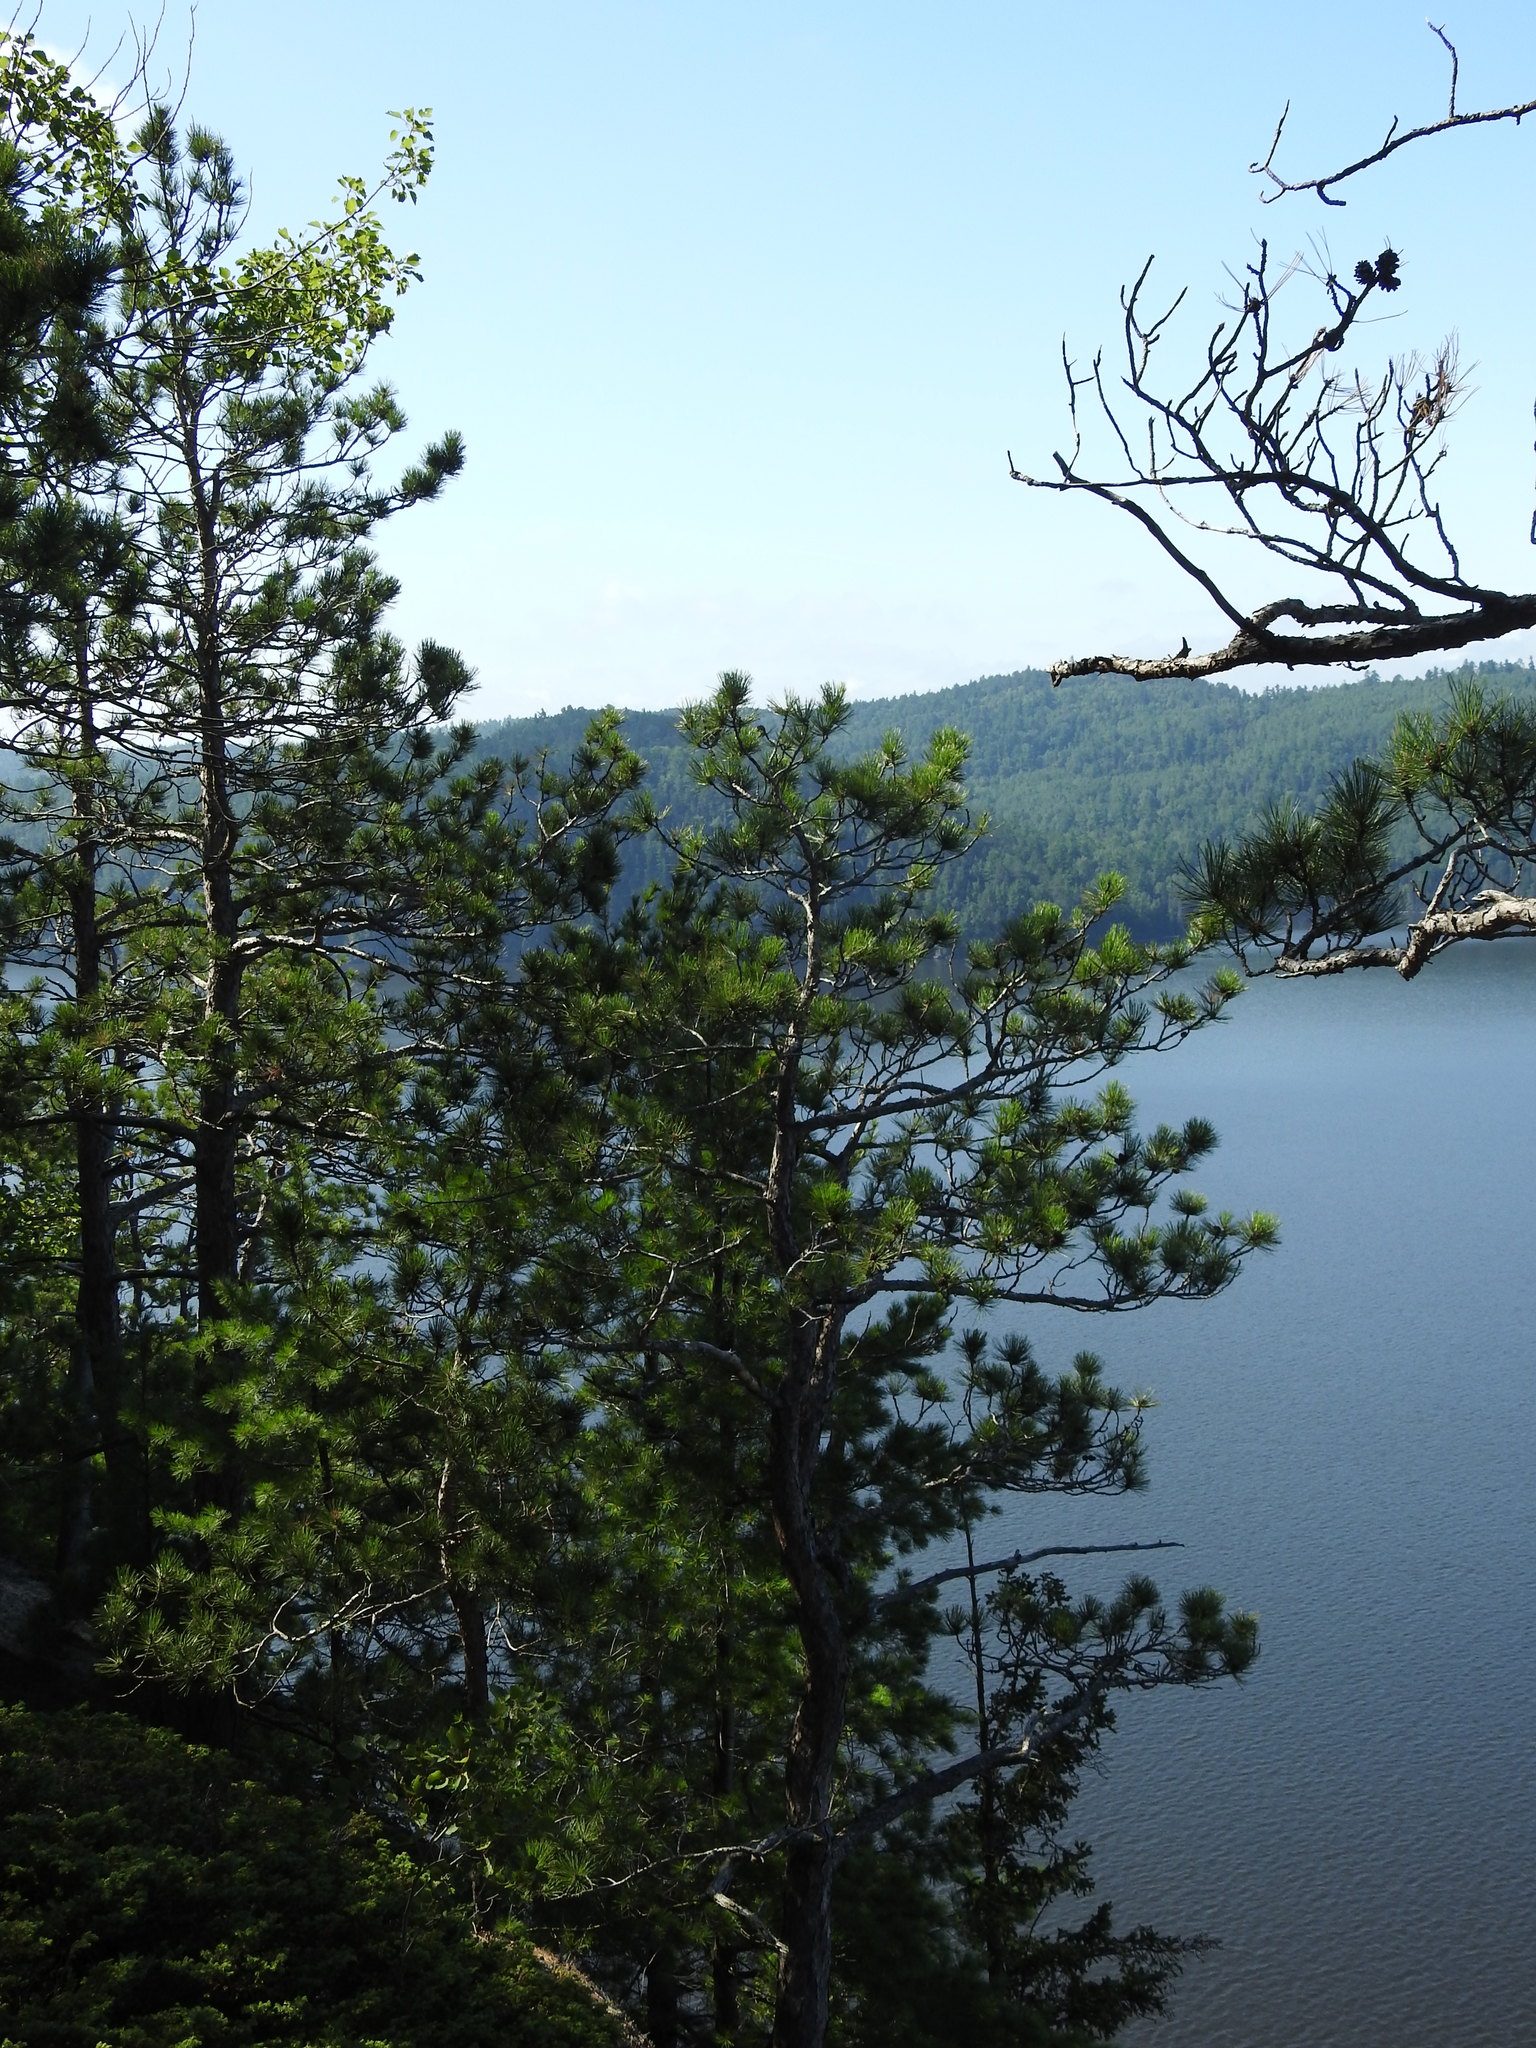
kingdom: Plantae
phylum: Tracheophyta
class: Pinopsida
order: Pinales
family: Pinaceae
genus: Pinus
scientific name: Pinus resinosa
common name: Norway pine
